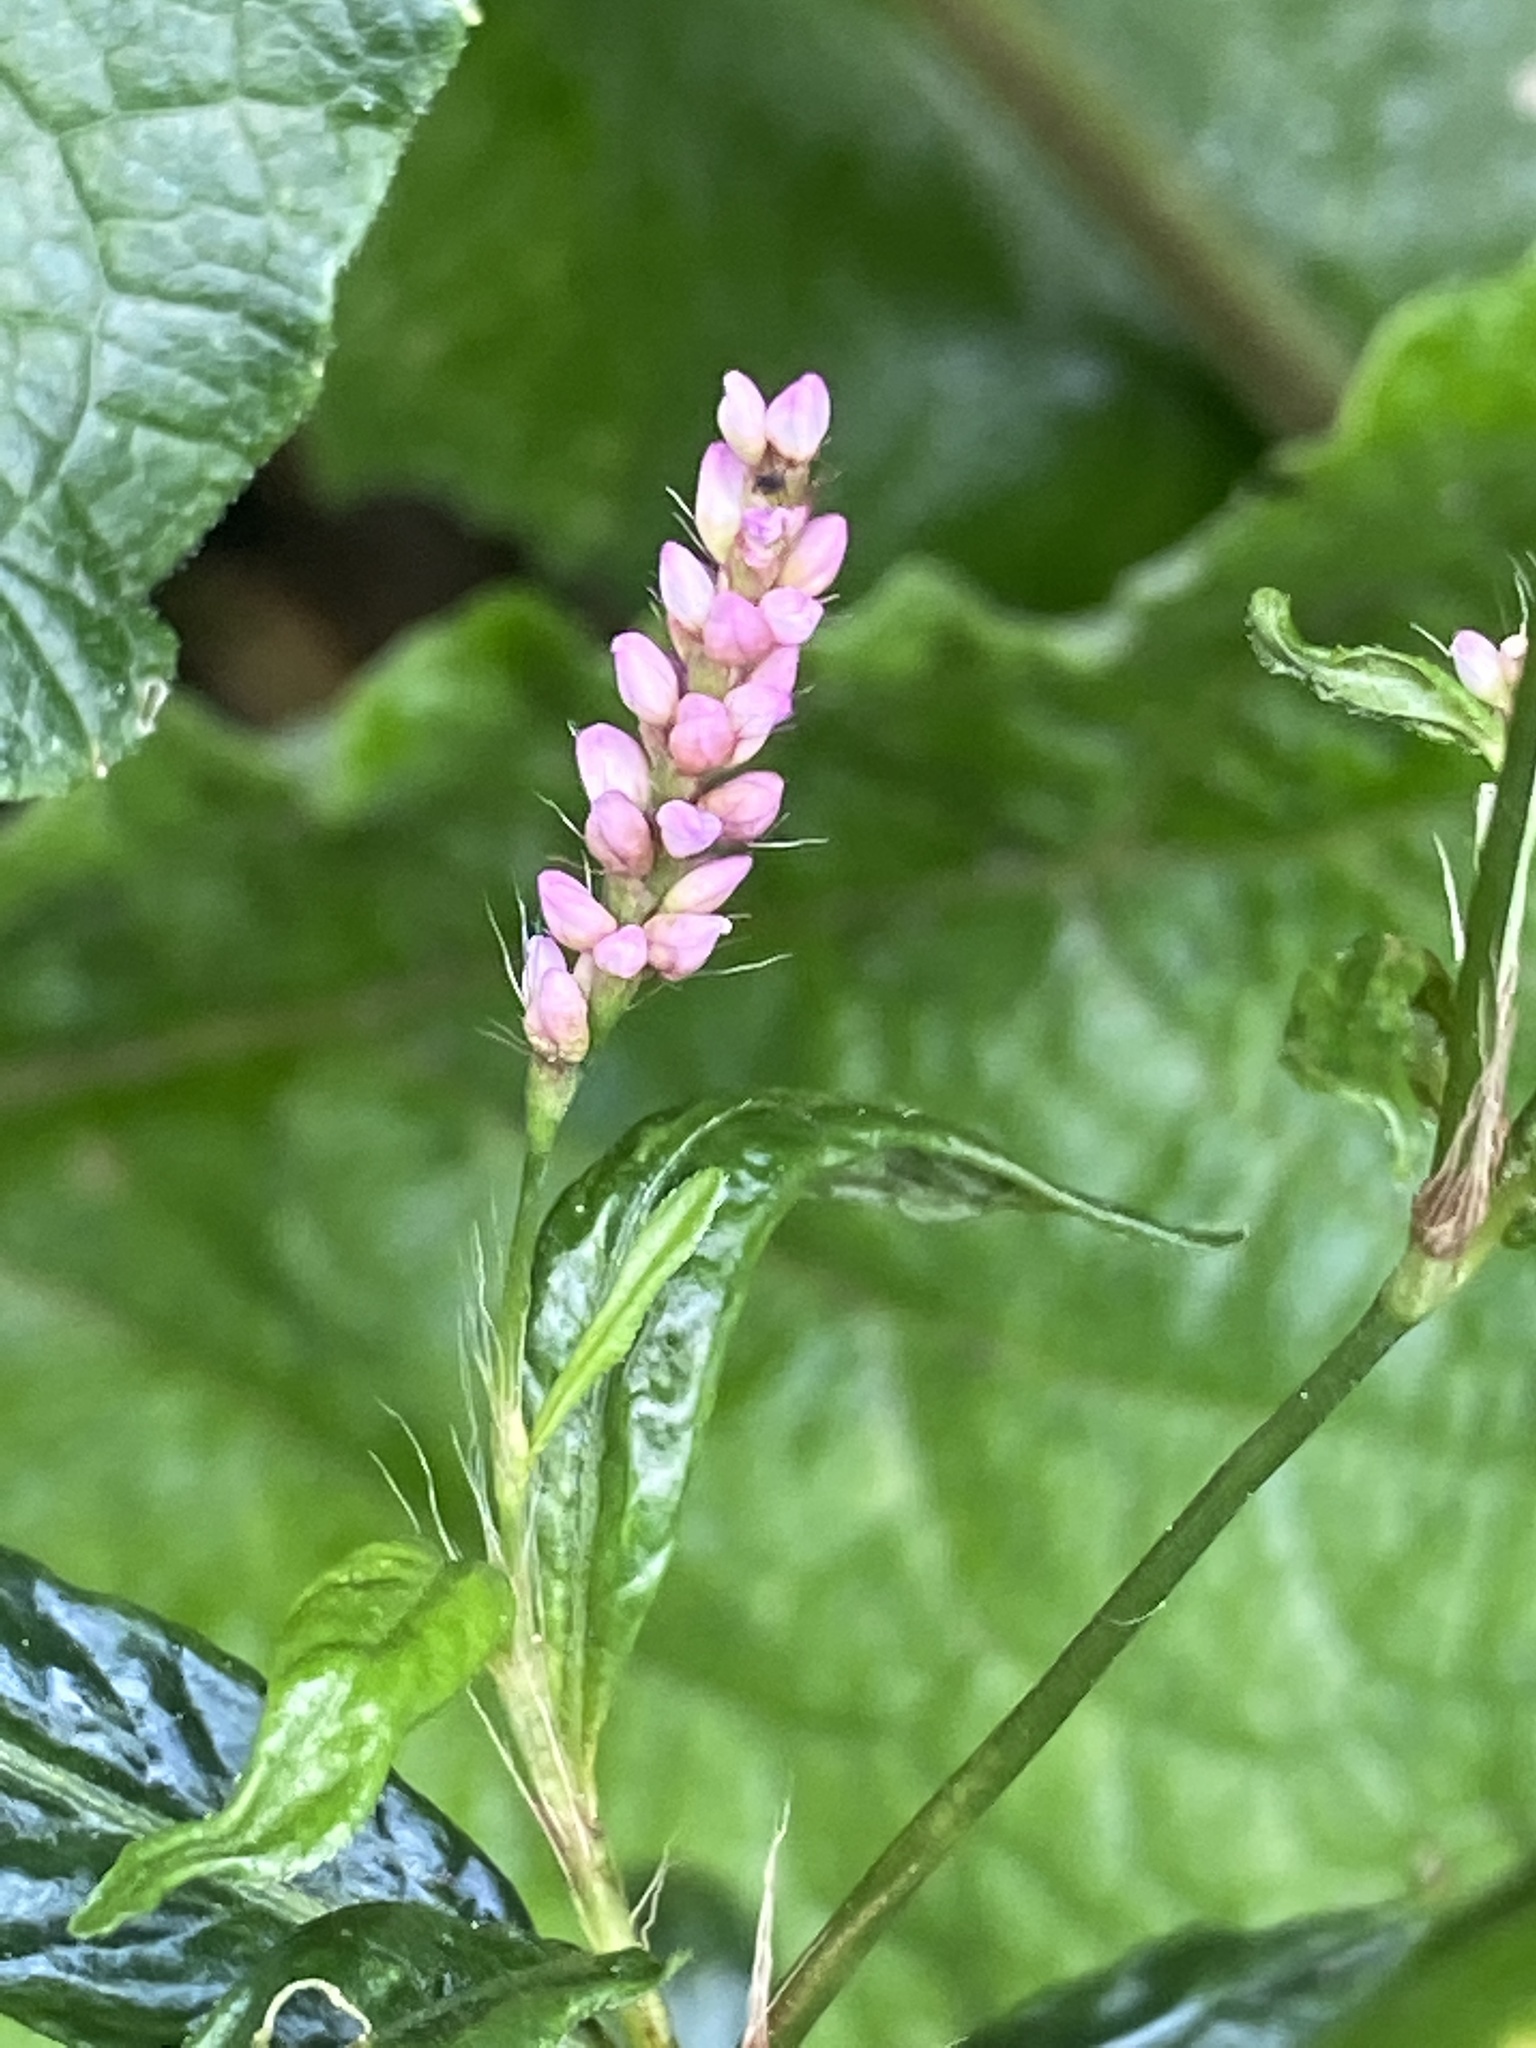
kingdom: Plantae
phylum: Tracheophyta
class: Magnoliopsida
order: Caryophyllales
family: Polygonaceae
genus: Persicaria
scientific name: Persicaria longiseta
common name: Bristly lady's-thumb
